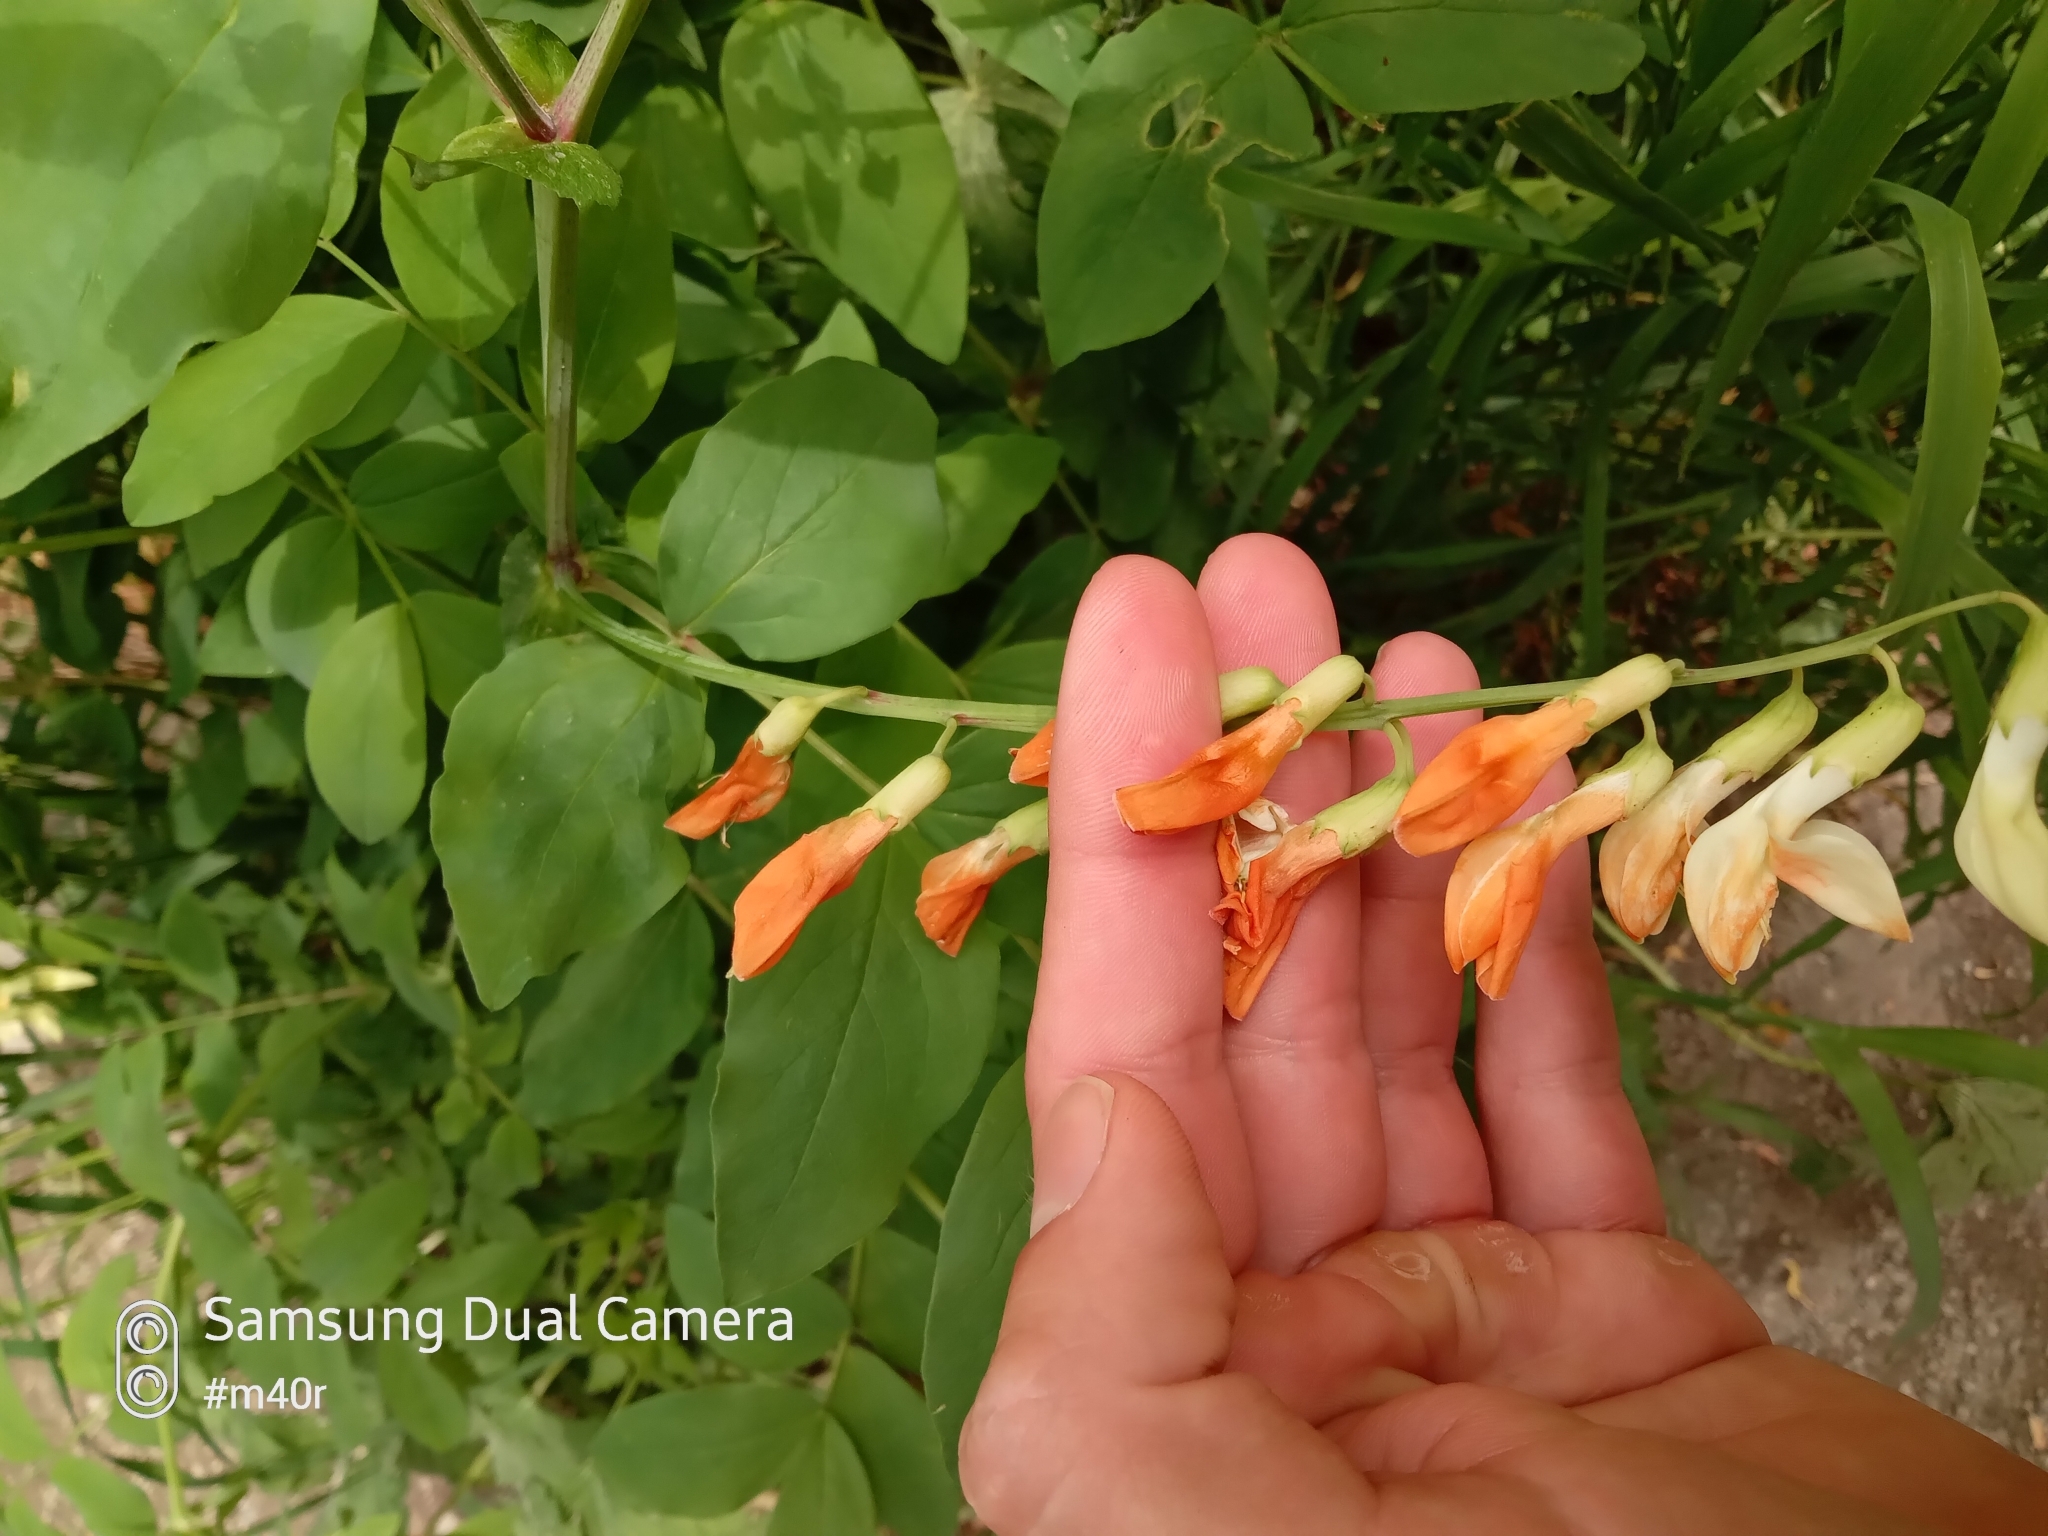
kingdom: Plantae
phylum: Tracheophyta
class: Magnoliopsida
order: Fabales
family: Fabaceae
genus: Lathyrus
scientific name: Lathyrus gmelinii
